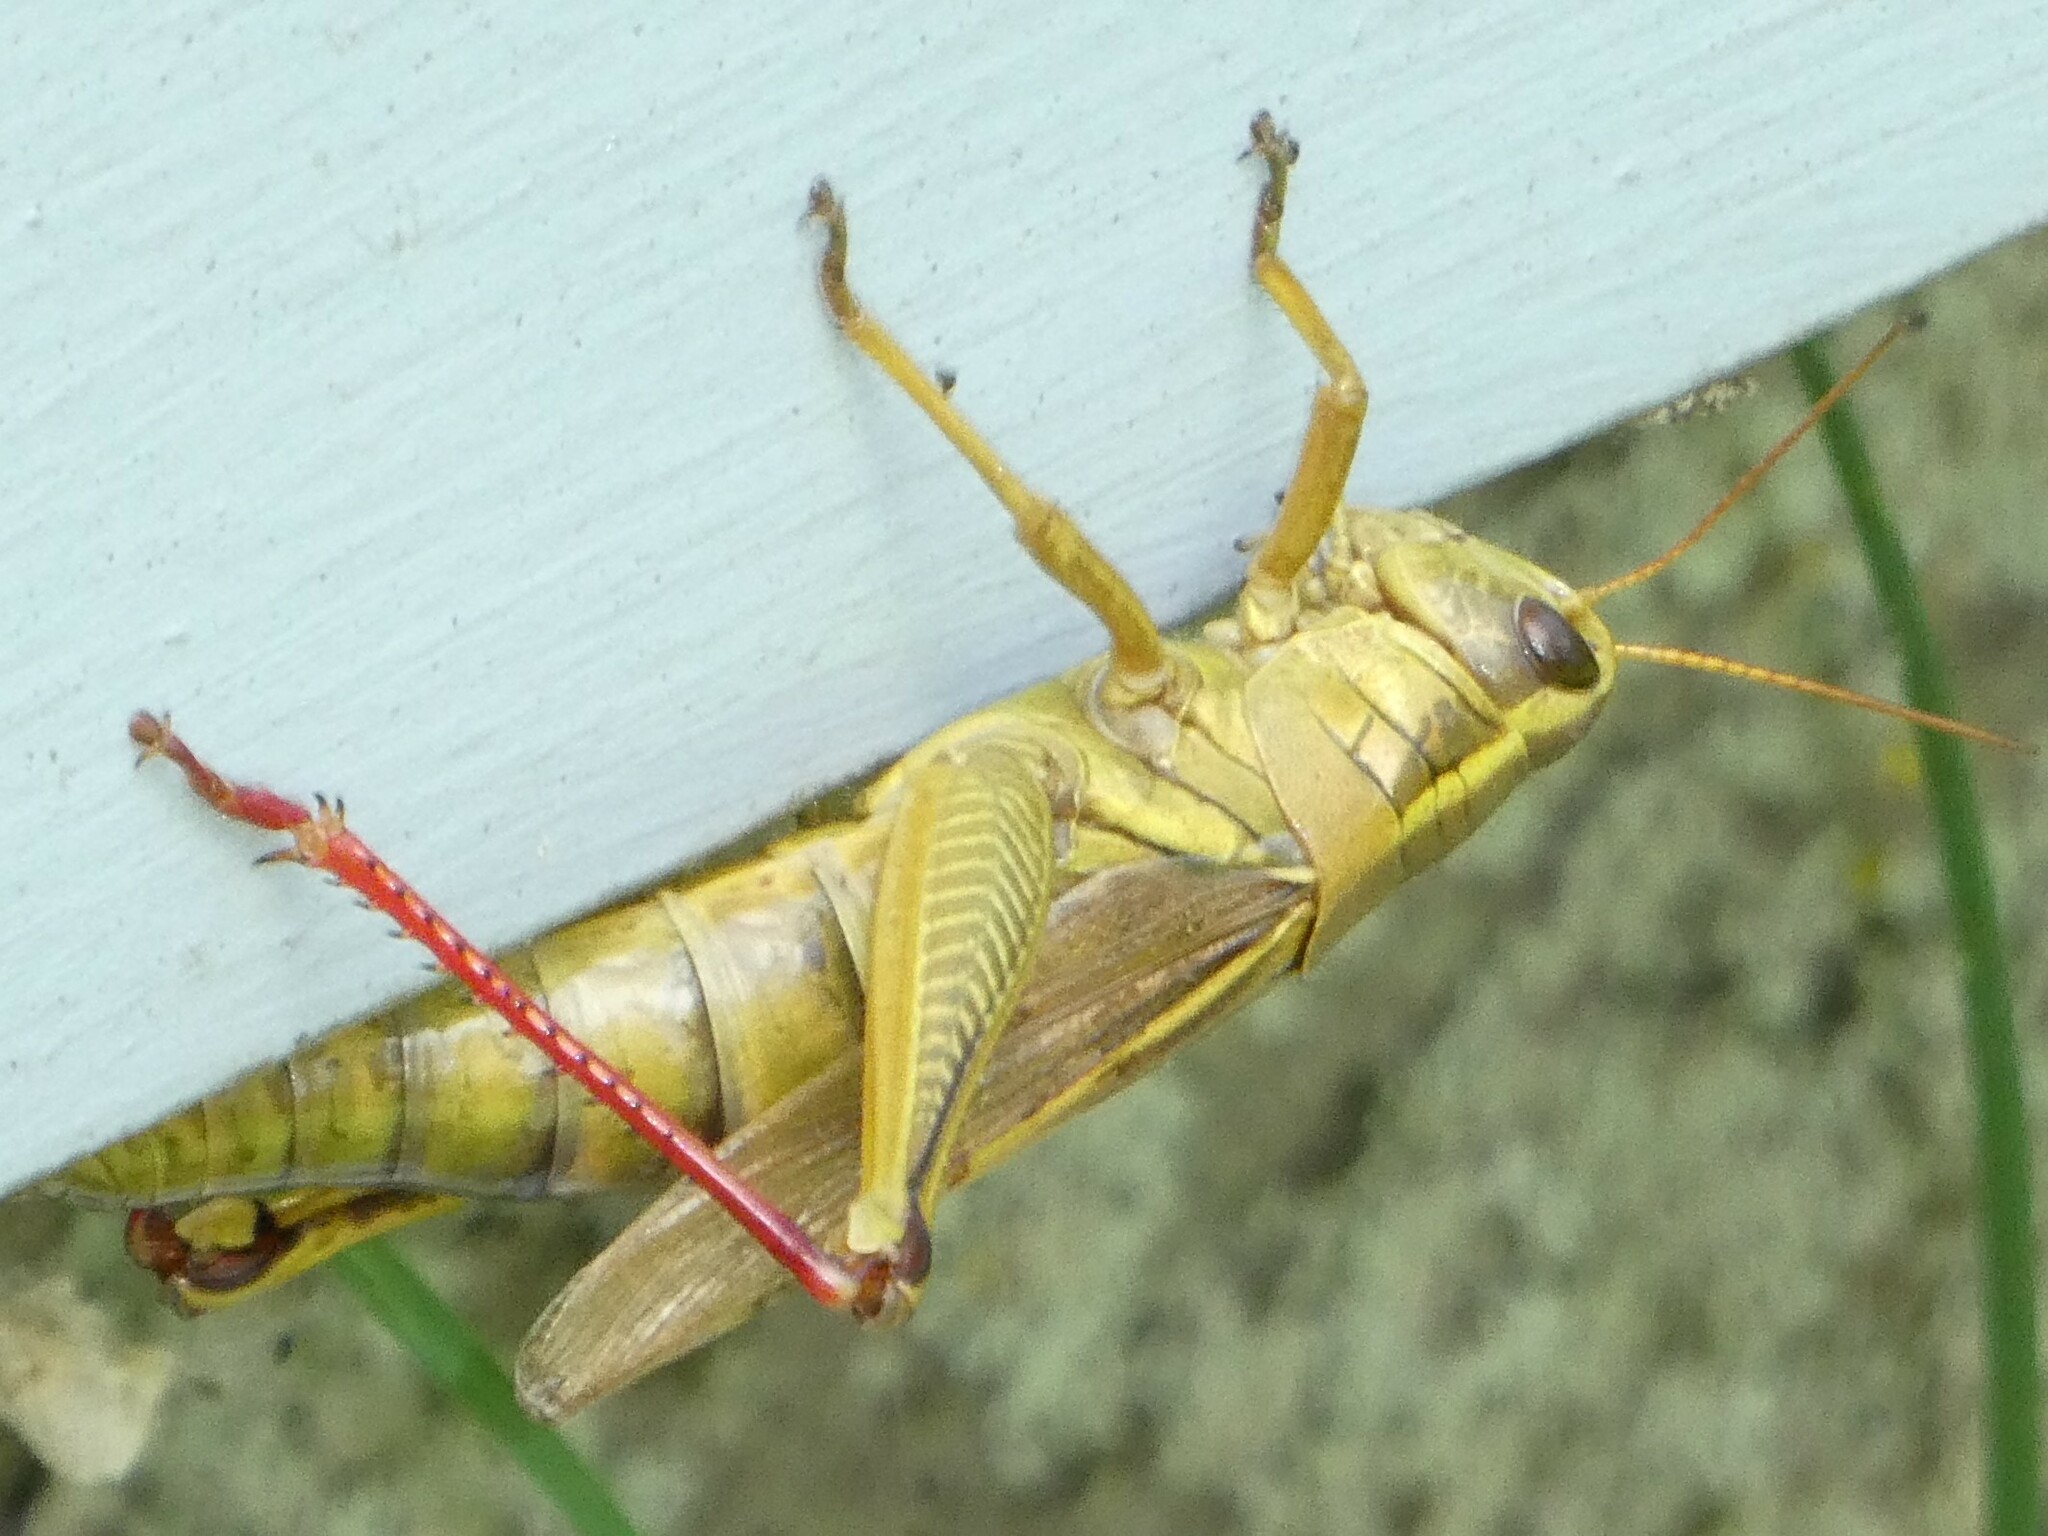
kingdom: Animalia
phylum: Arthropoda
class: Insecta
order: Orthoptera
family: Acrididae
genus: Melanoplus
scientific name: Melanoplus bivittatus
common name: Two-striped grasshopper
